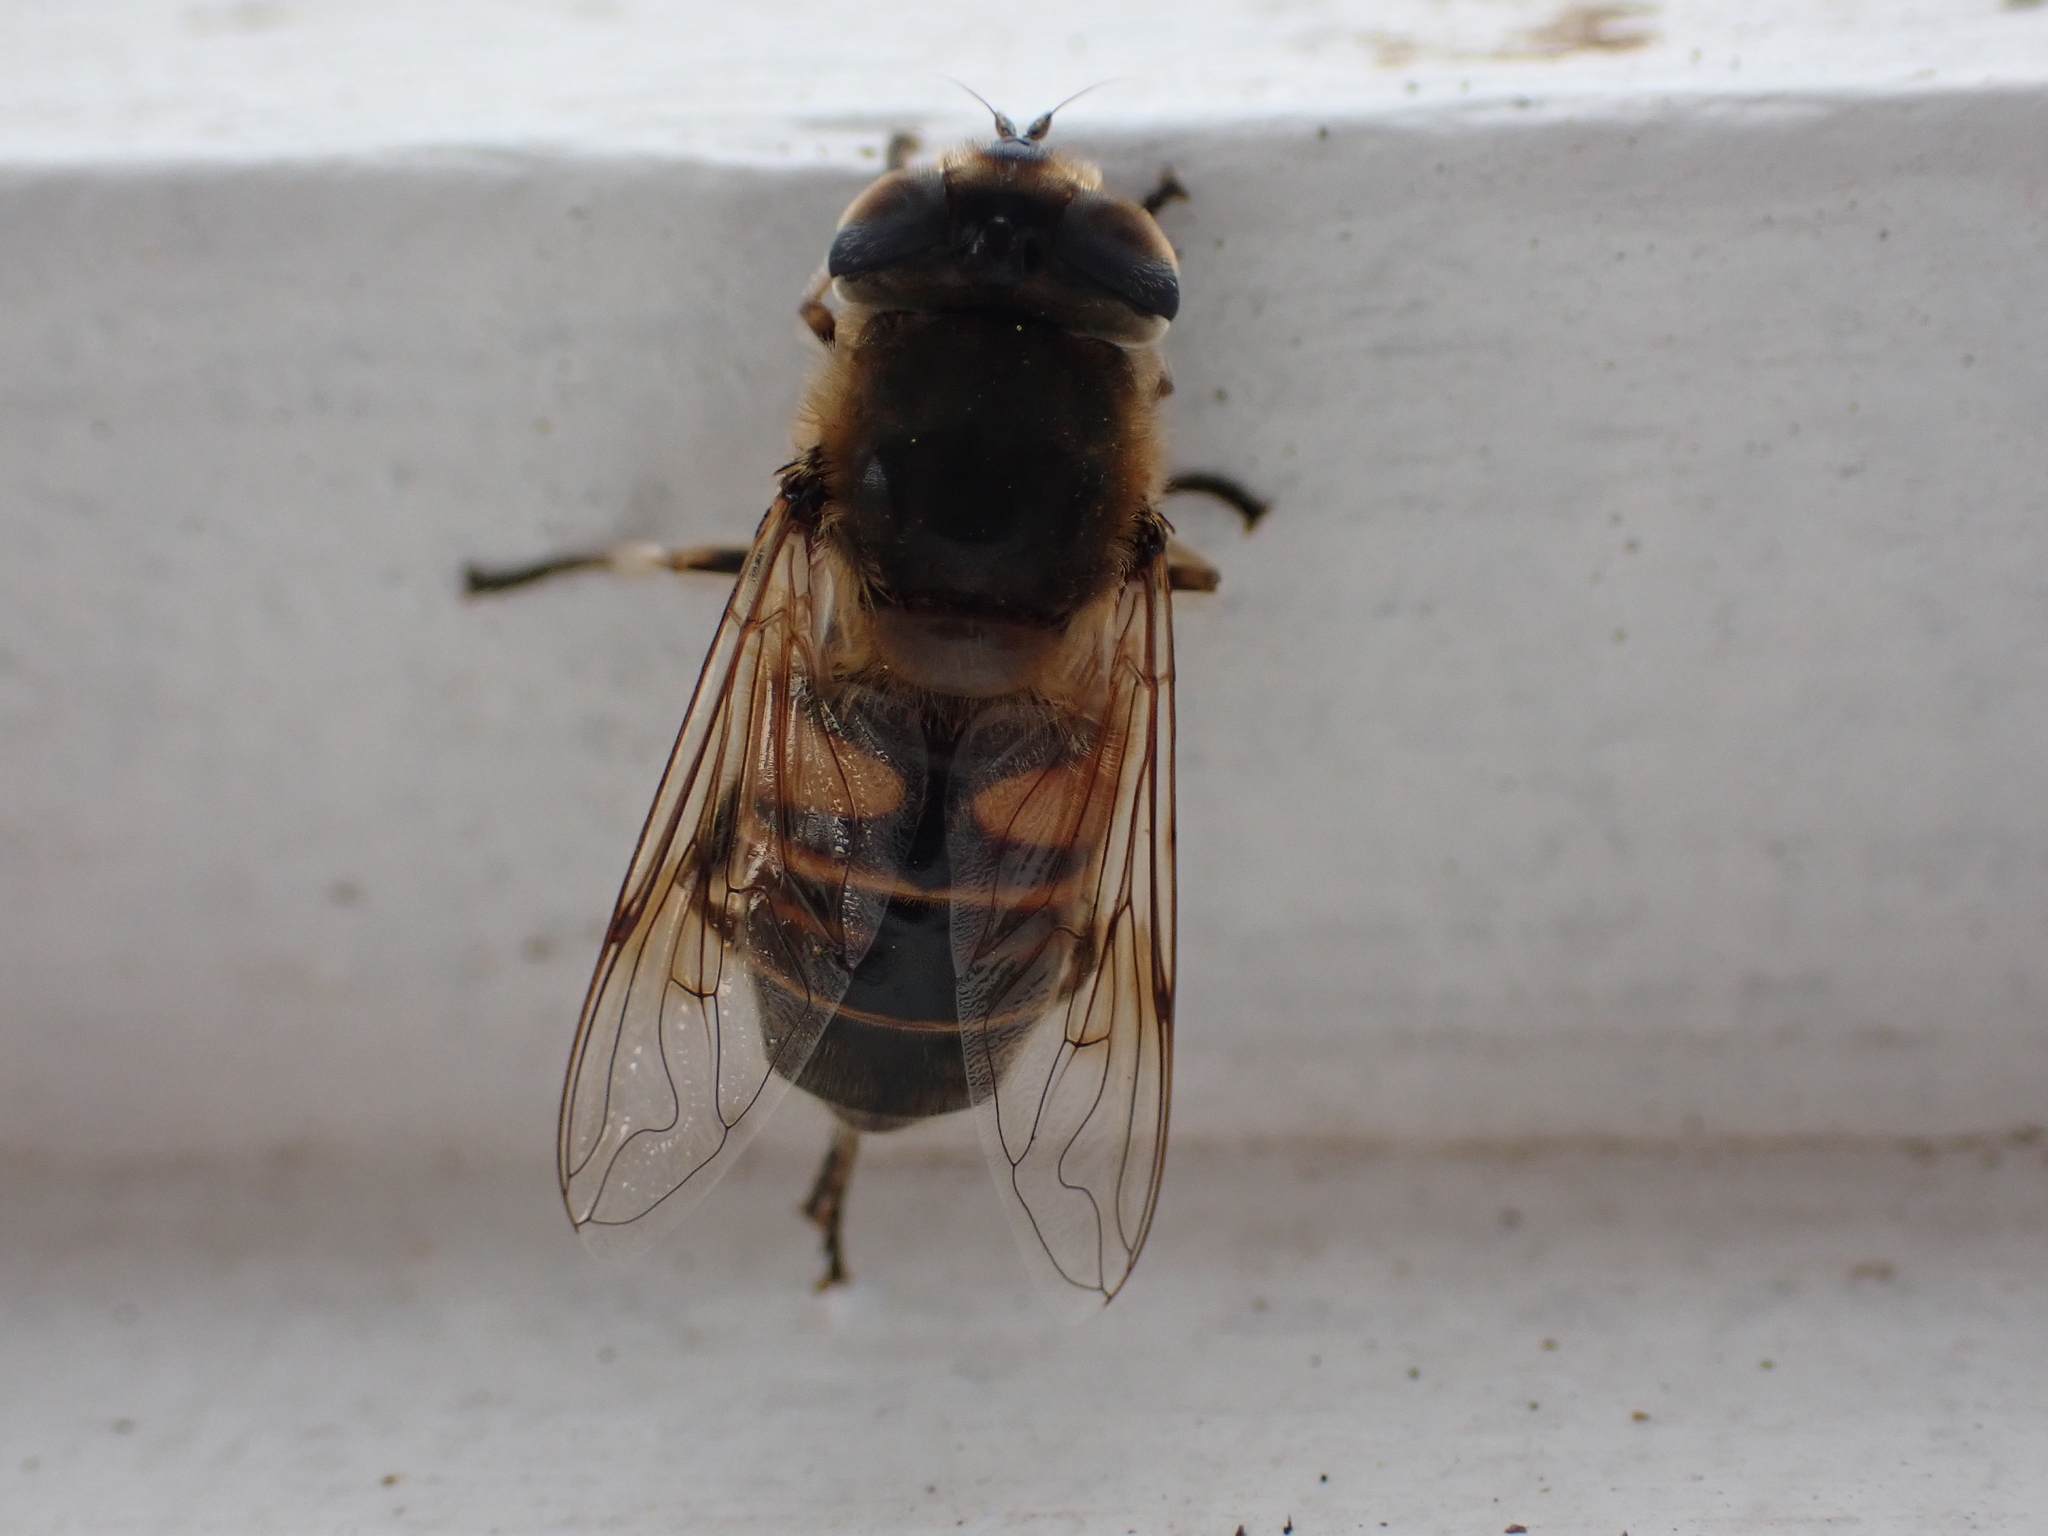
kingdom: Animalia
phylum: Arthropoda
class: Insecta
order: Diptera
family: Syrphidae
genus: Eristalis
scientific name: Eristalis tenax
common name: Drone fly
